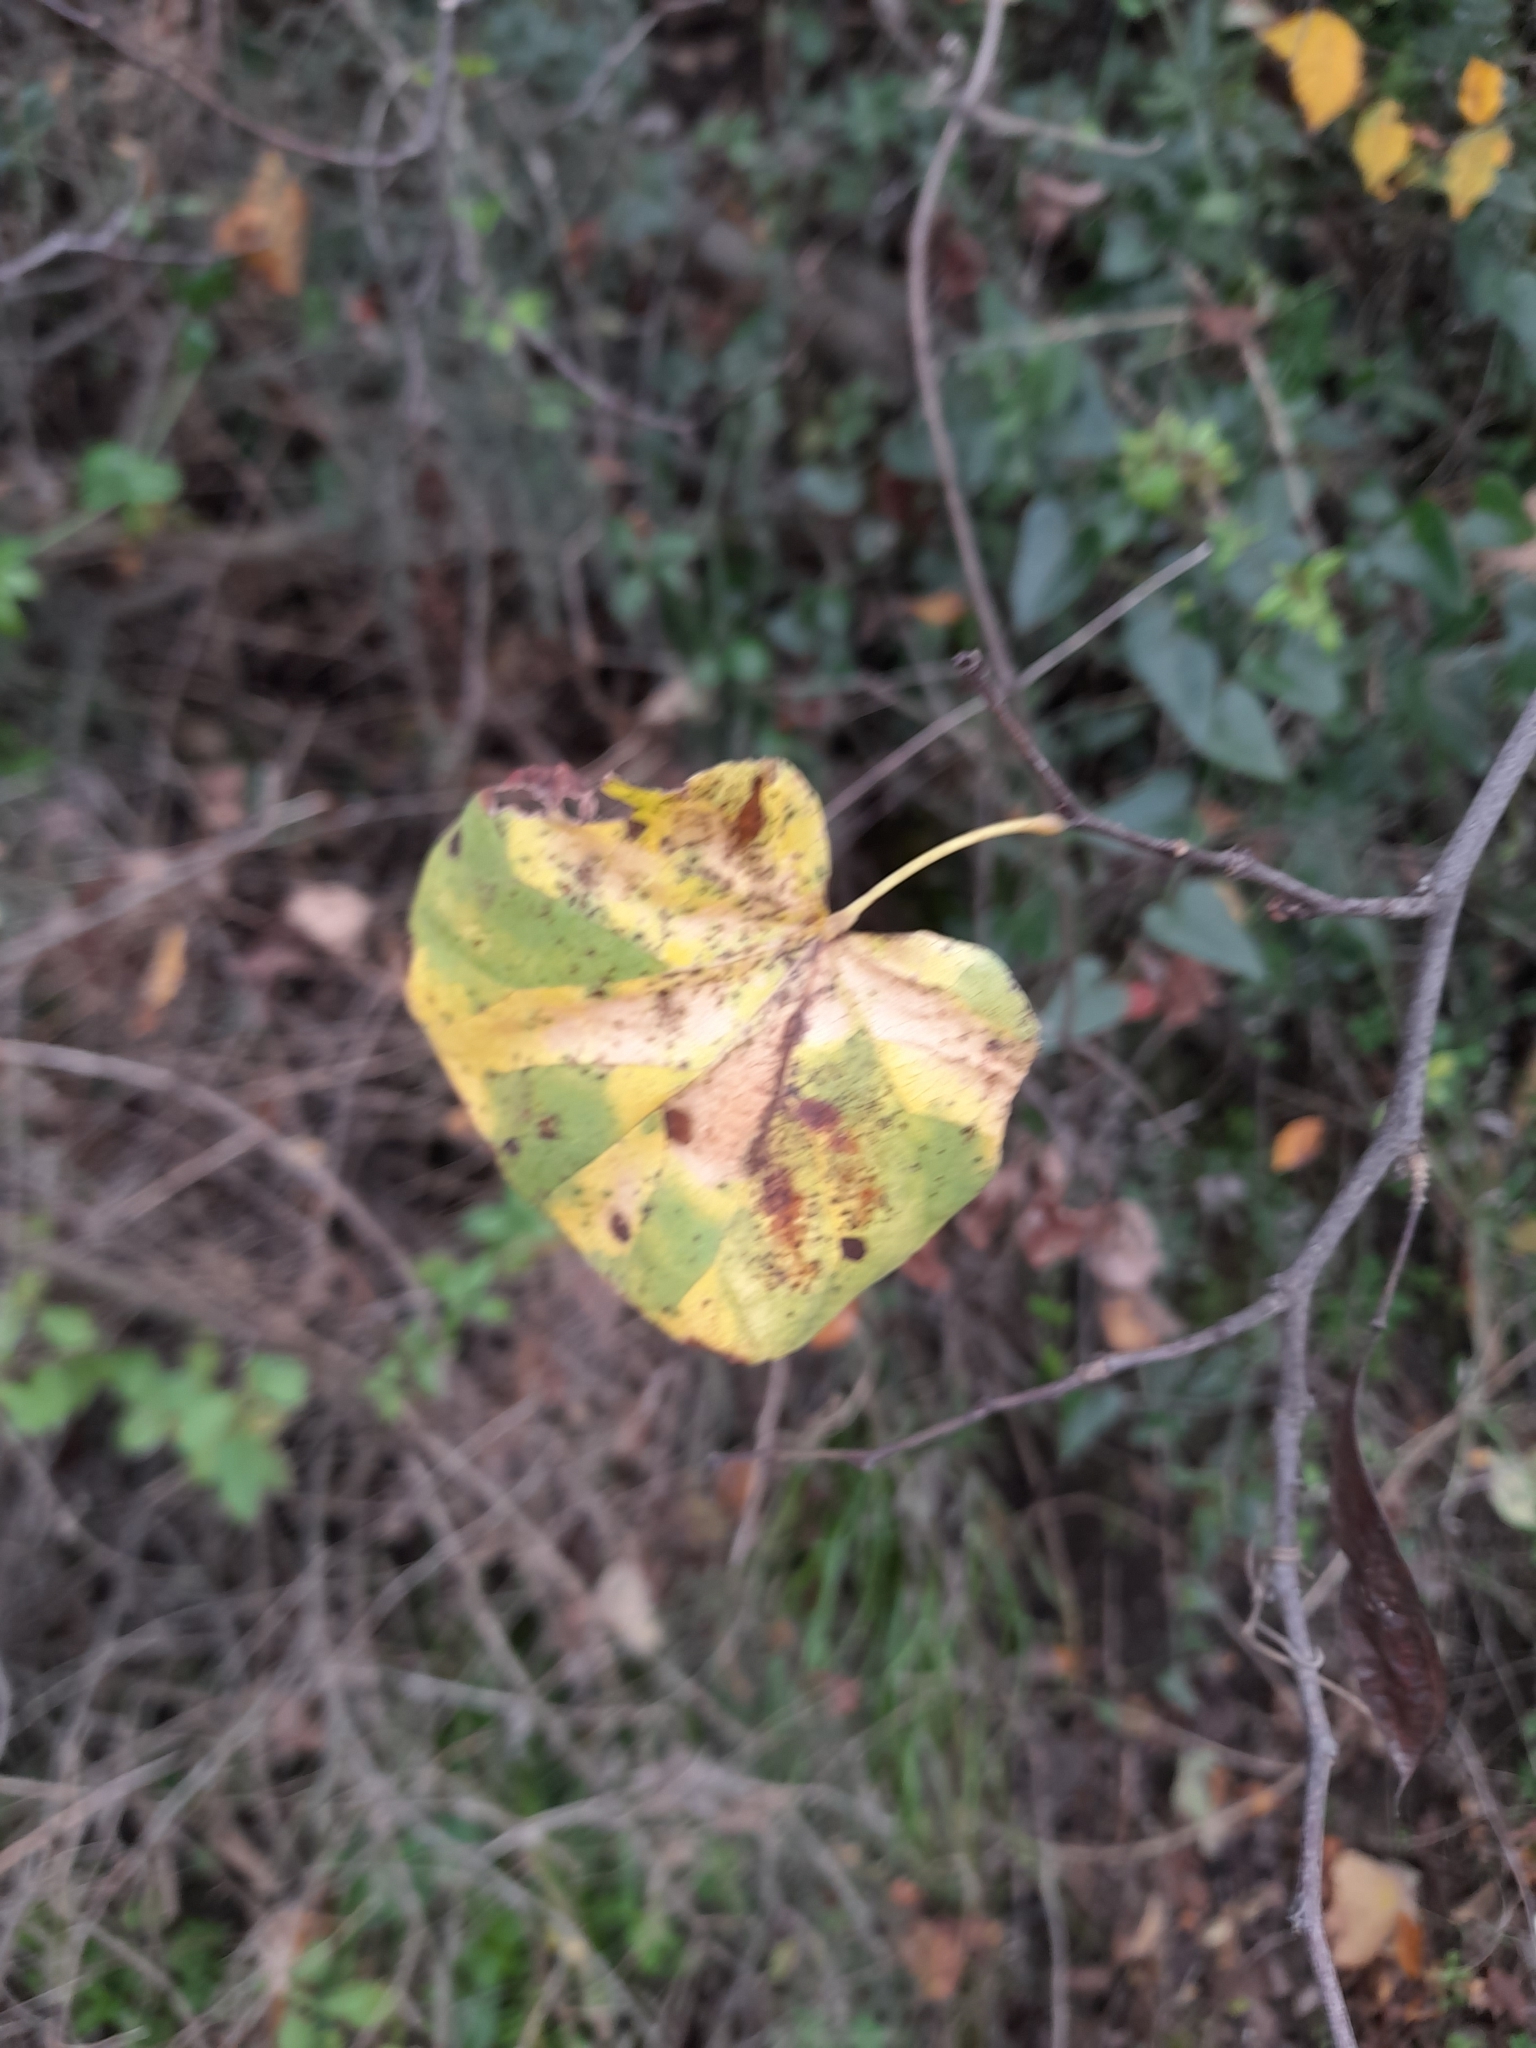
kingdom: Plantae
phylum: Tracheophyta
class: Magnoliopsida
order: Fabales
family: Fabaceae
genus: Cercis
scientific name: Cercis siliquastrum
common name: Judas tree
